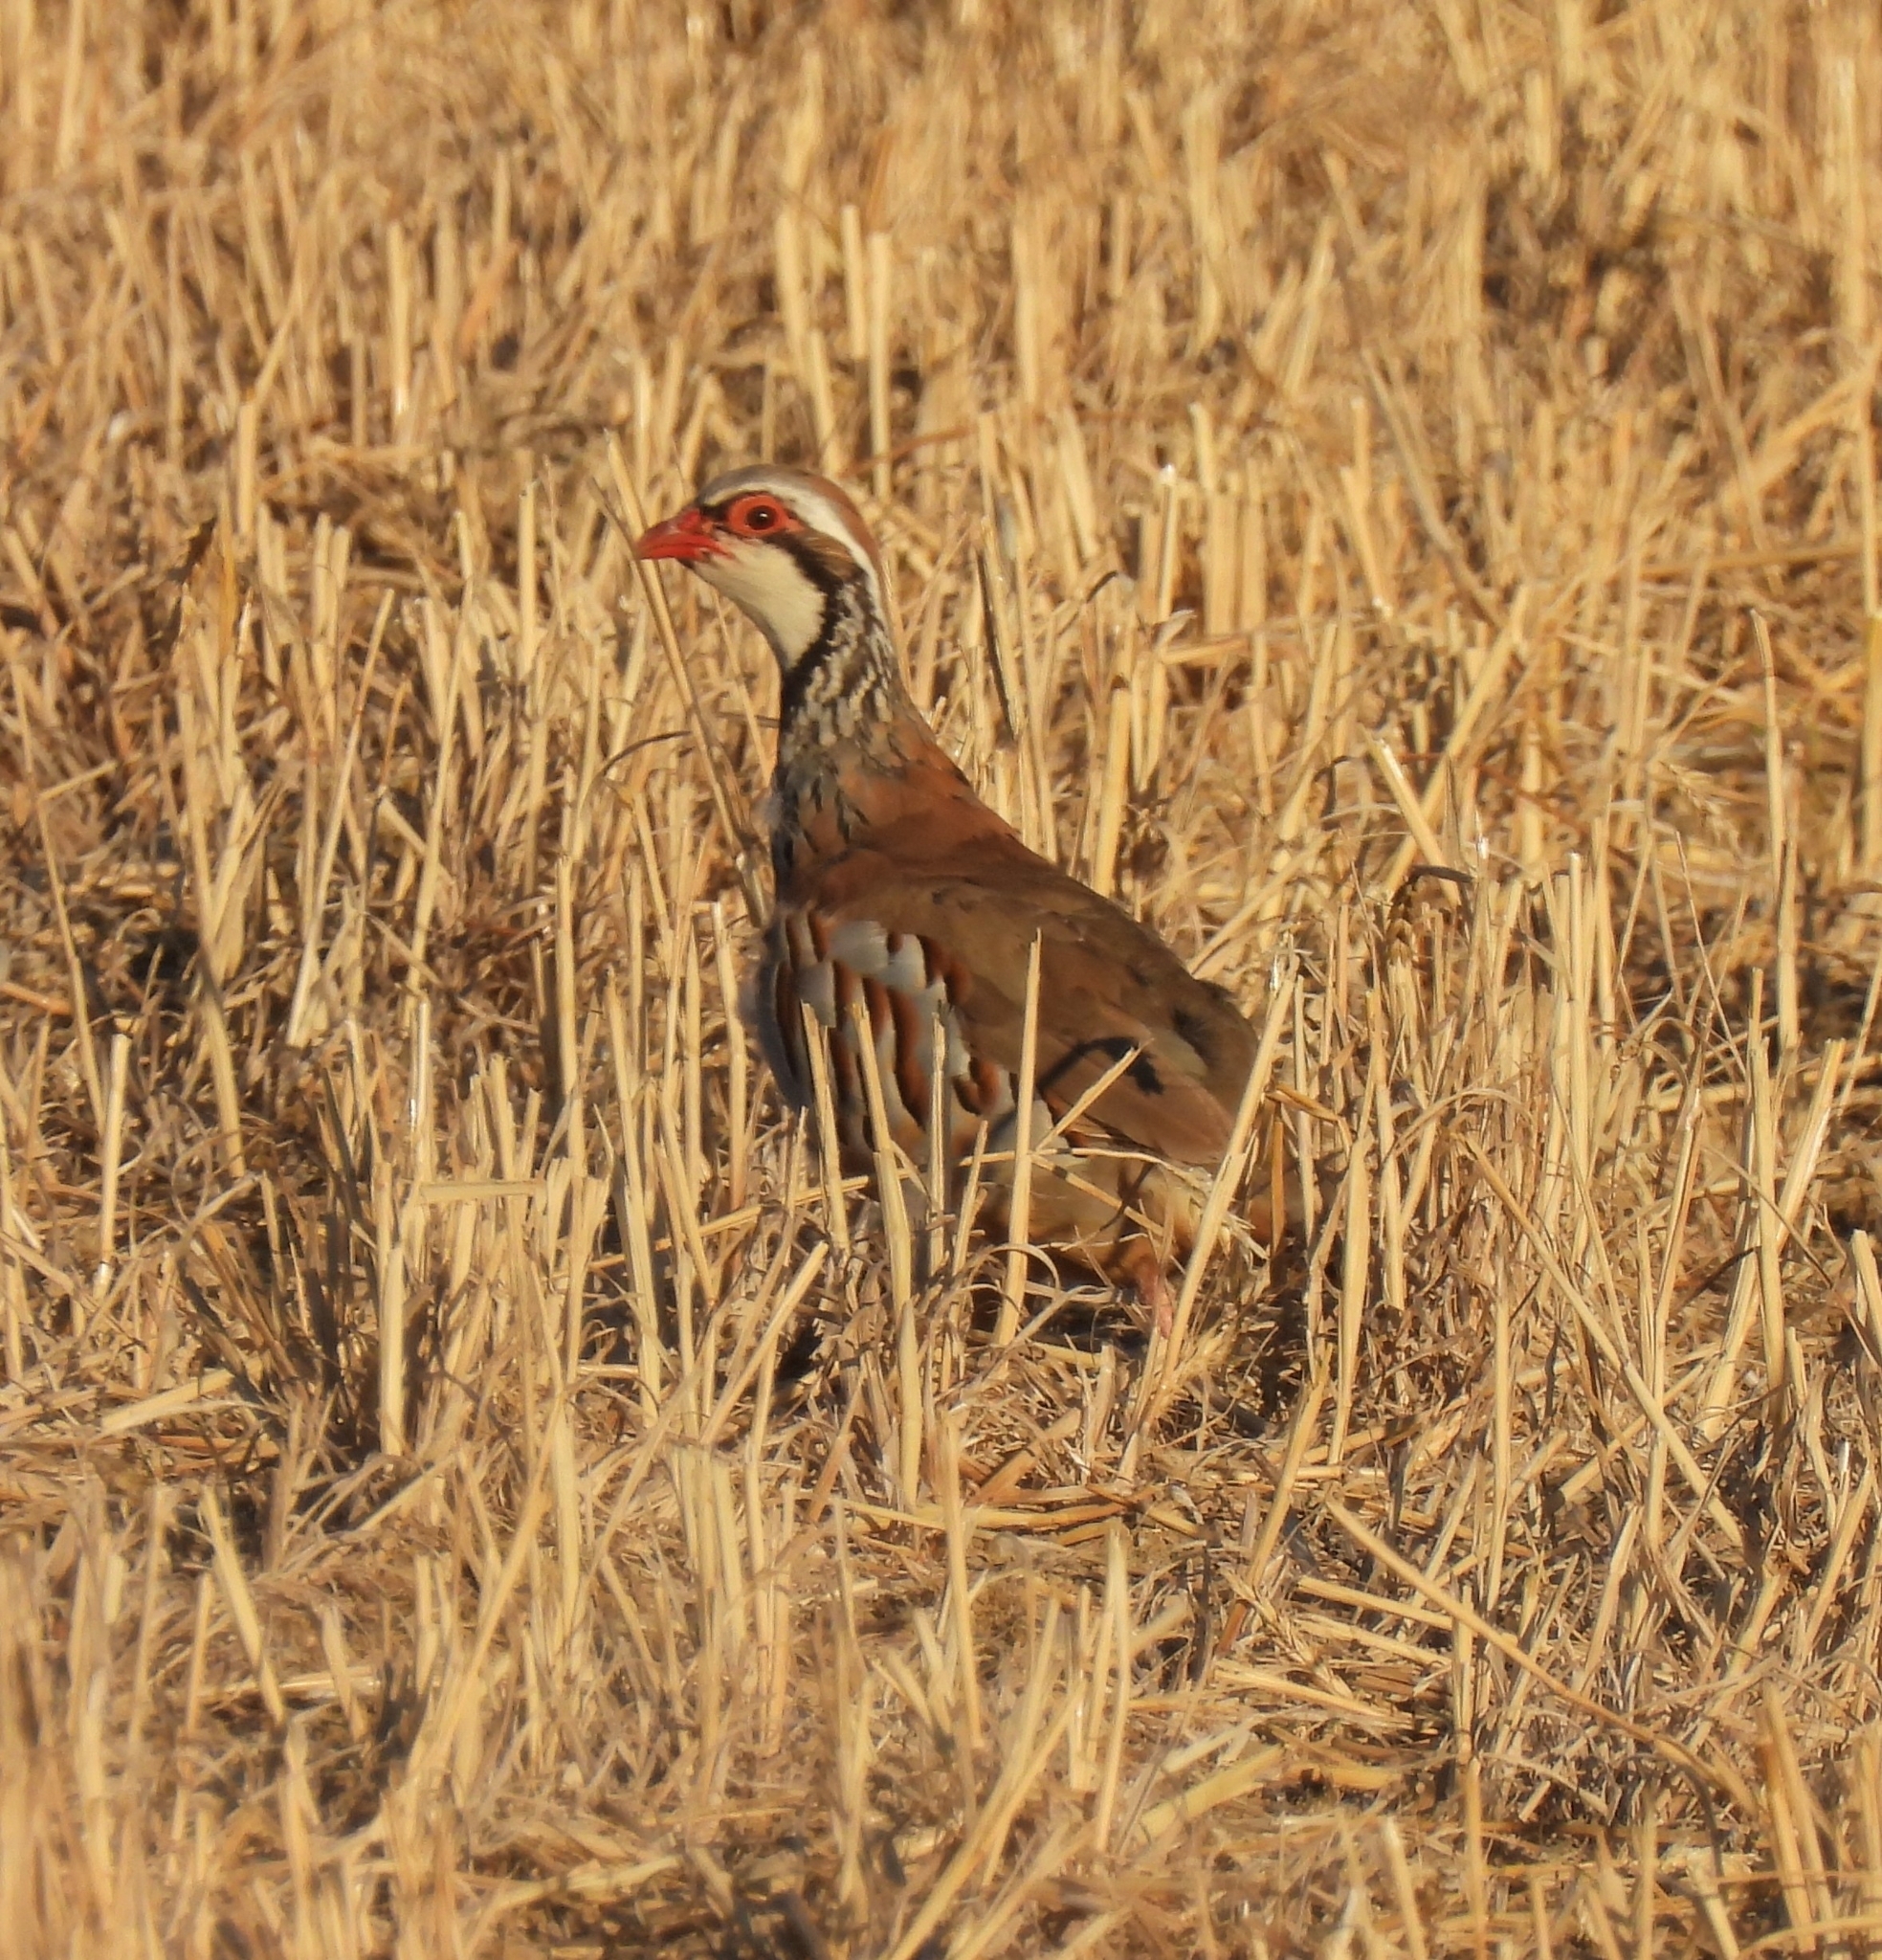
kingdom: Animalia
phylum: Chordata
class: Aves
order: Galliformes
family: Phasianidae
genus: Alectoris
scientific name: Alectoris rufa
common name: Red-legged partridge
